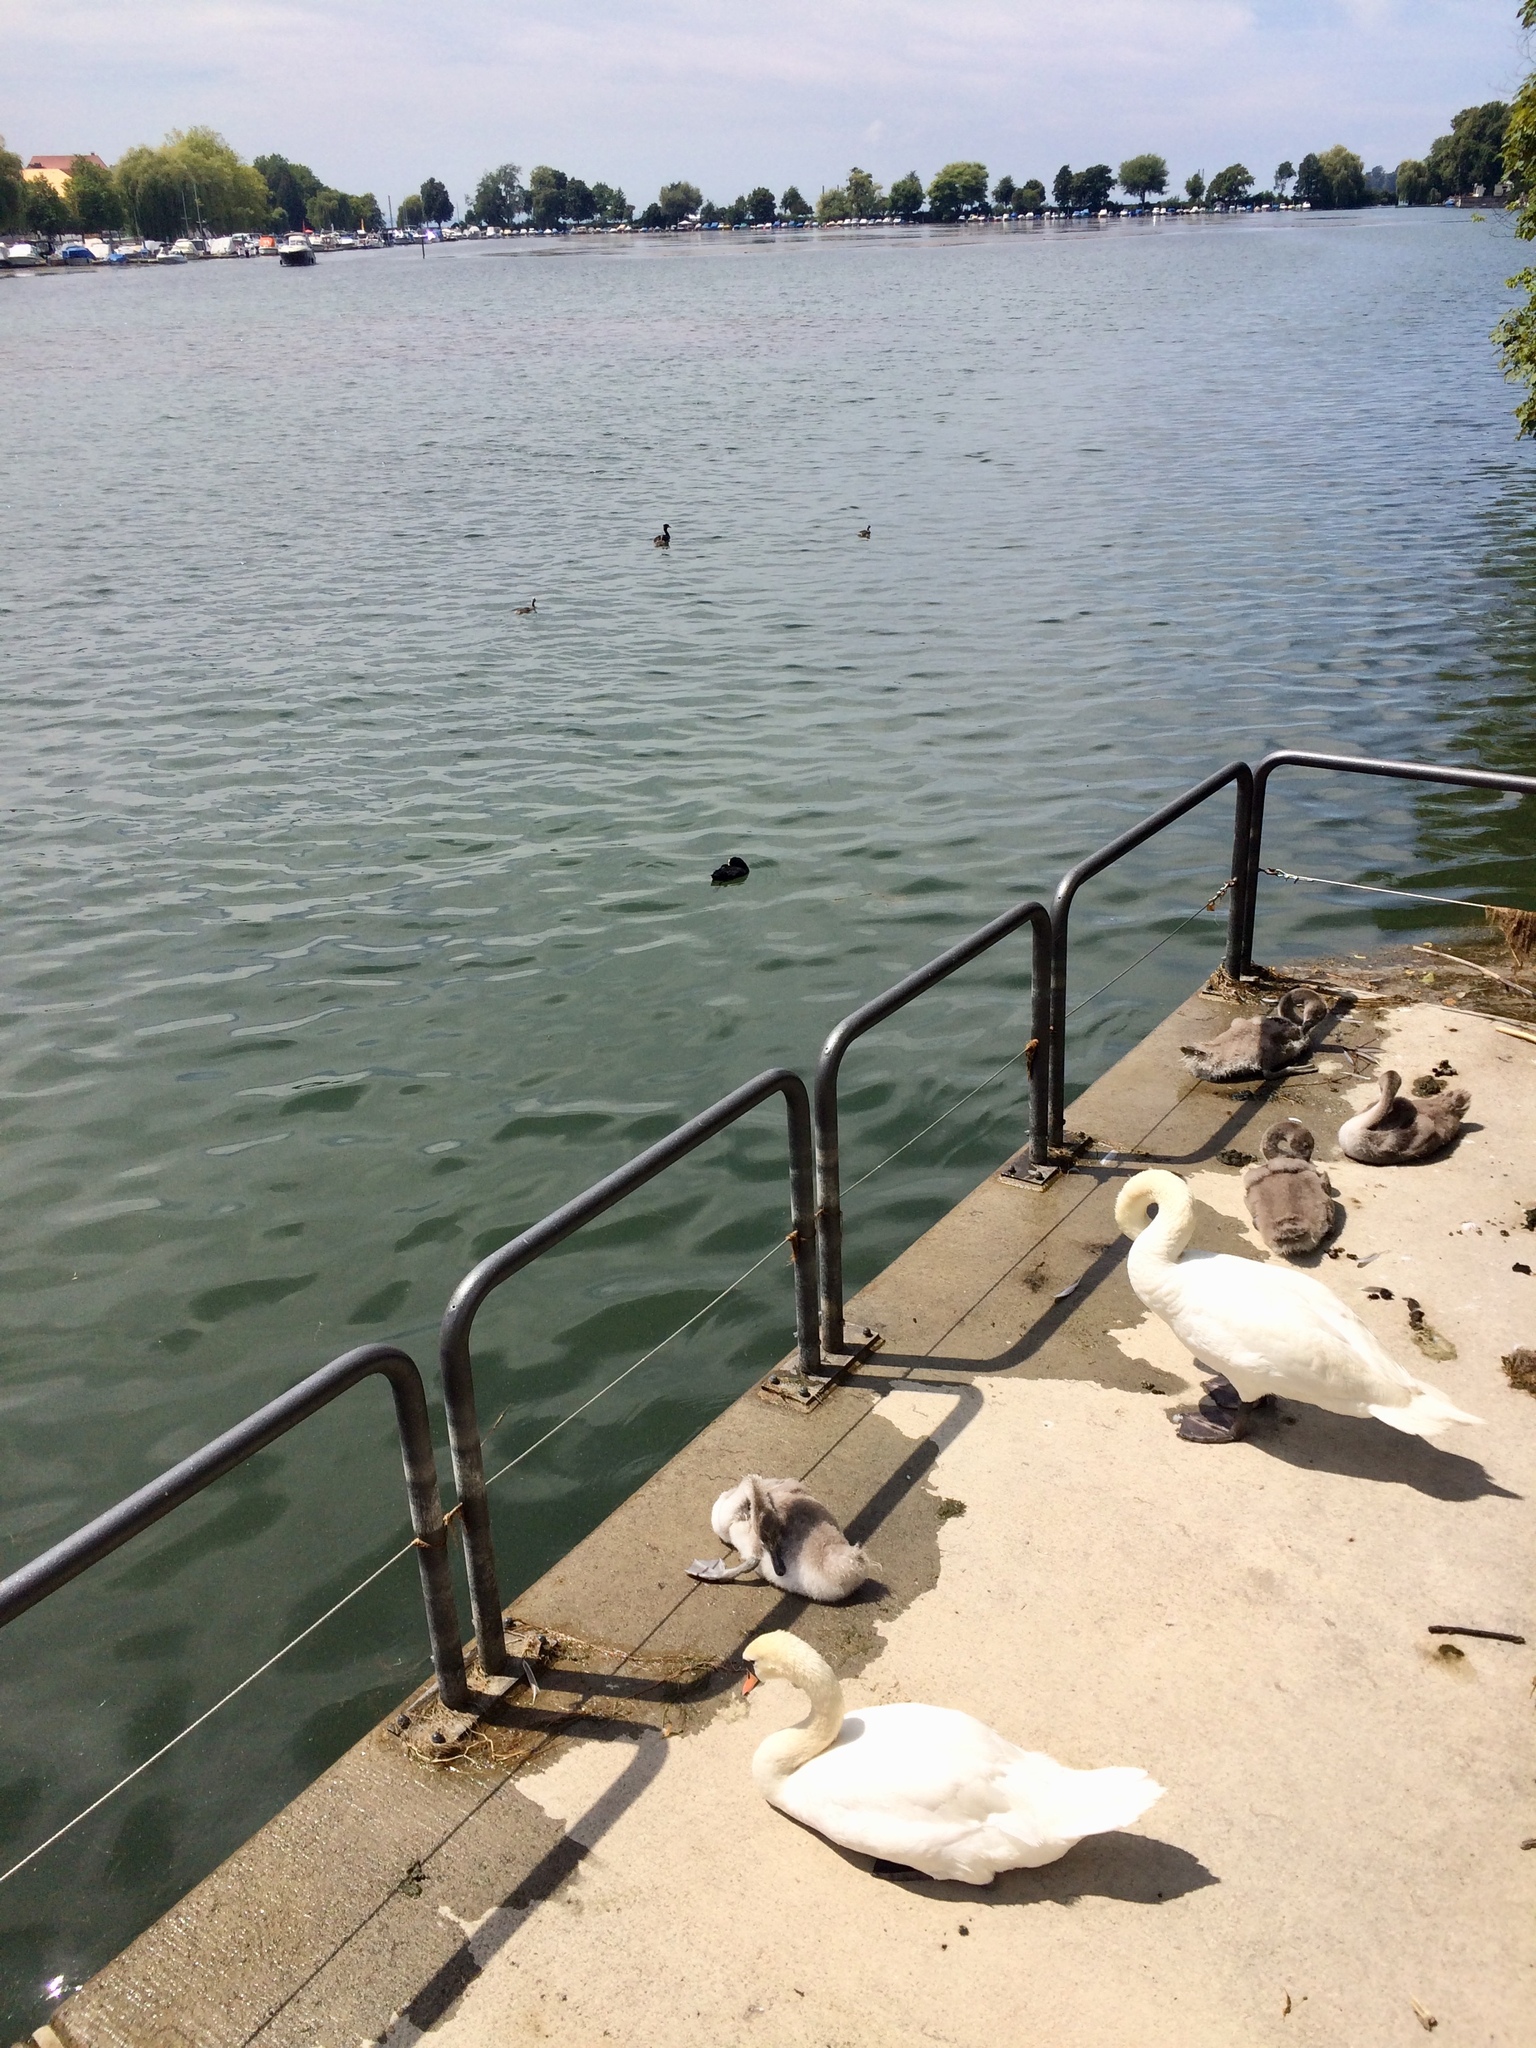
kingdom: Animalia
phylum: Chordata
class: Aves
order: Anseriformes
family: Anatidae
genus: Cygnus
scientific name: Cygnus olor
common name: Mute swan
